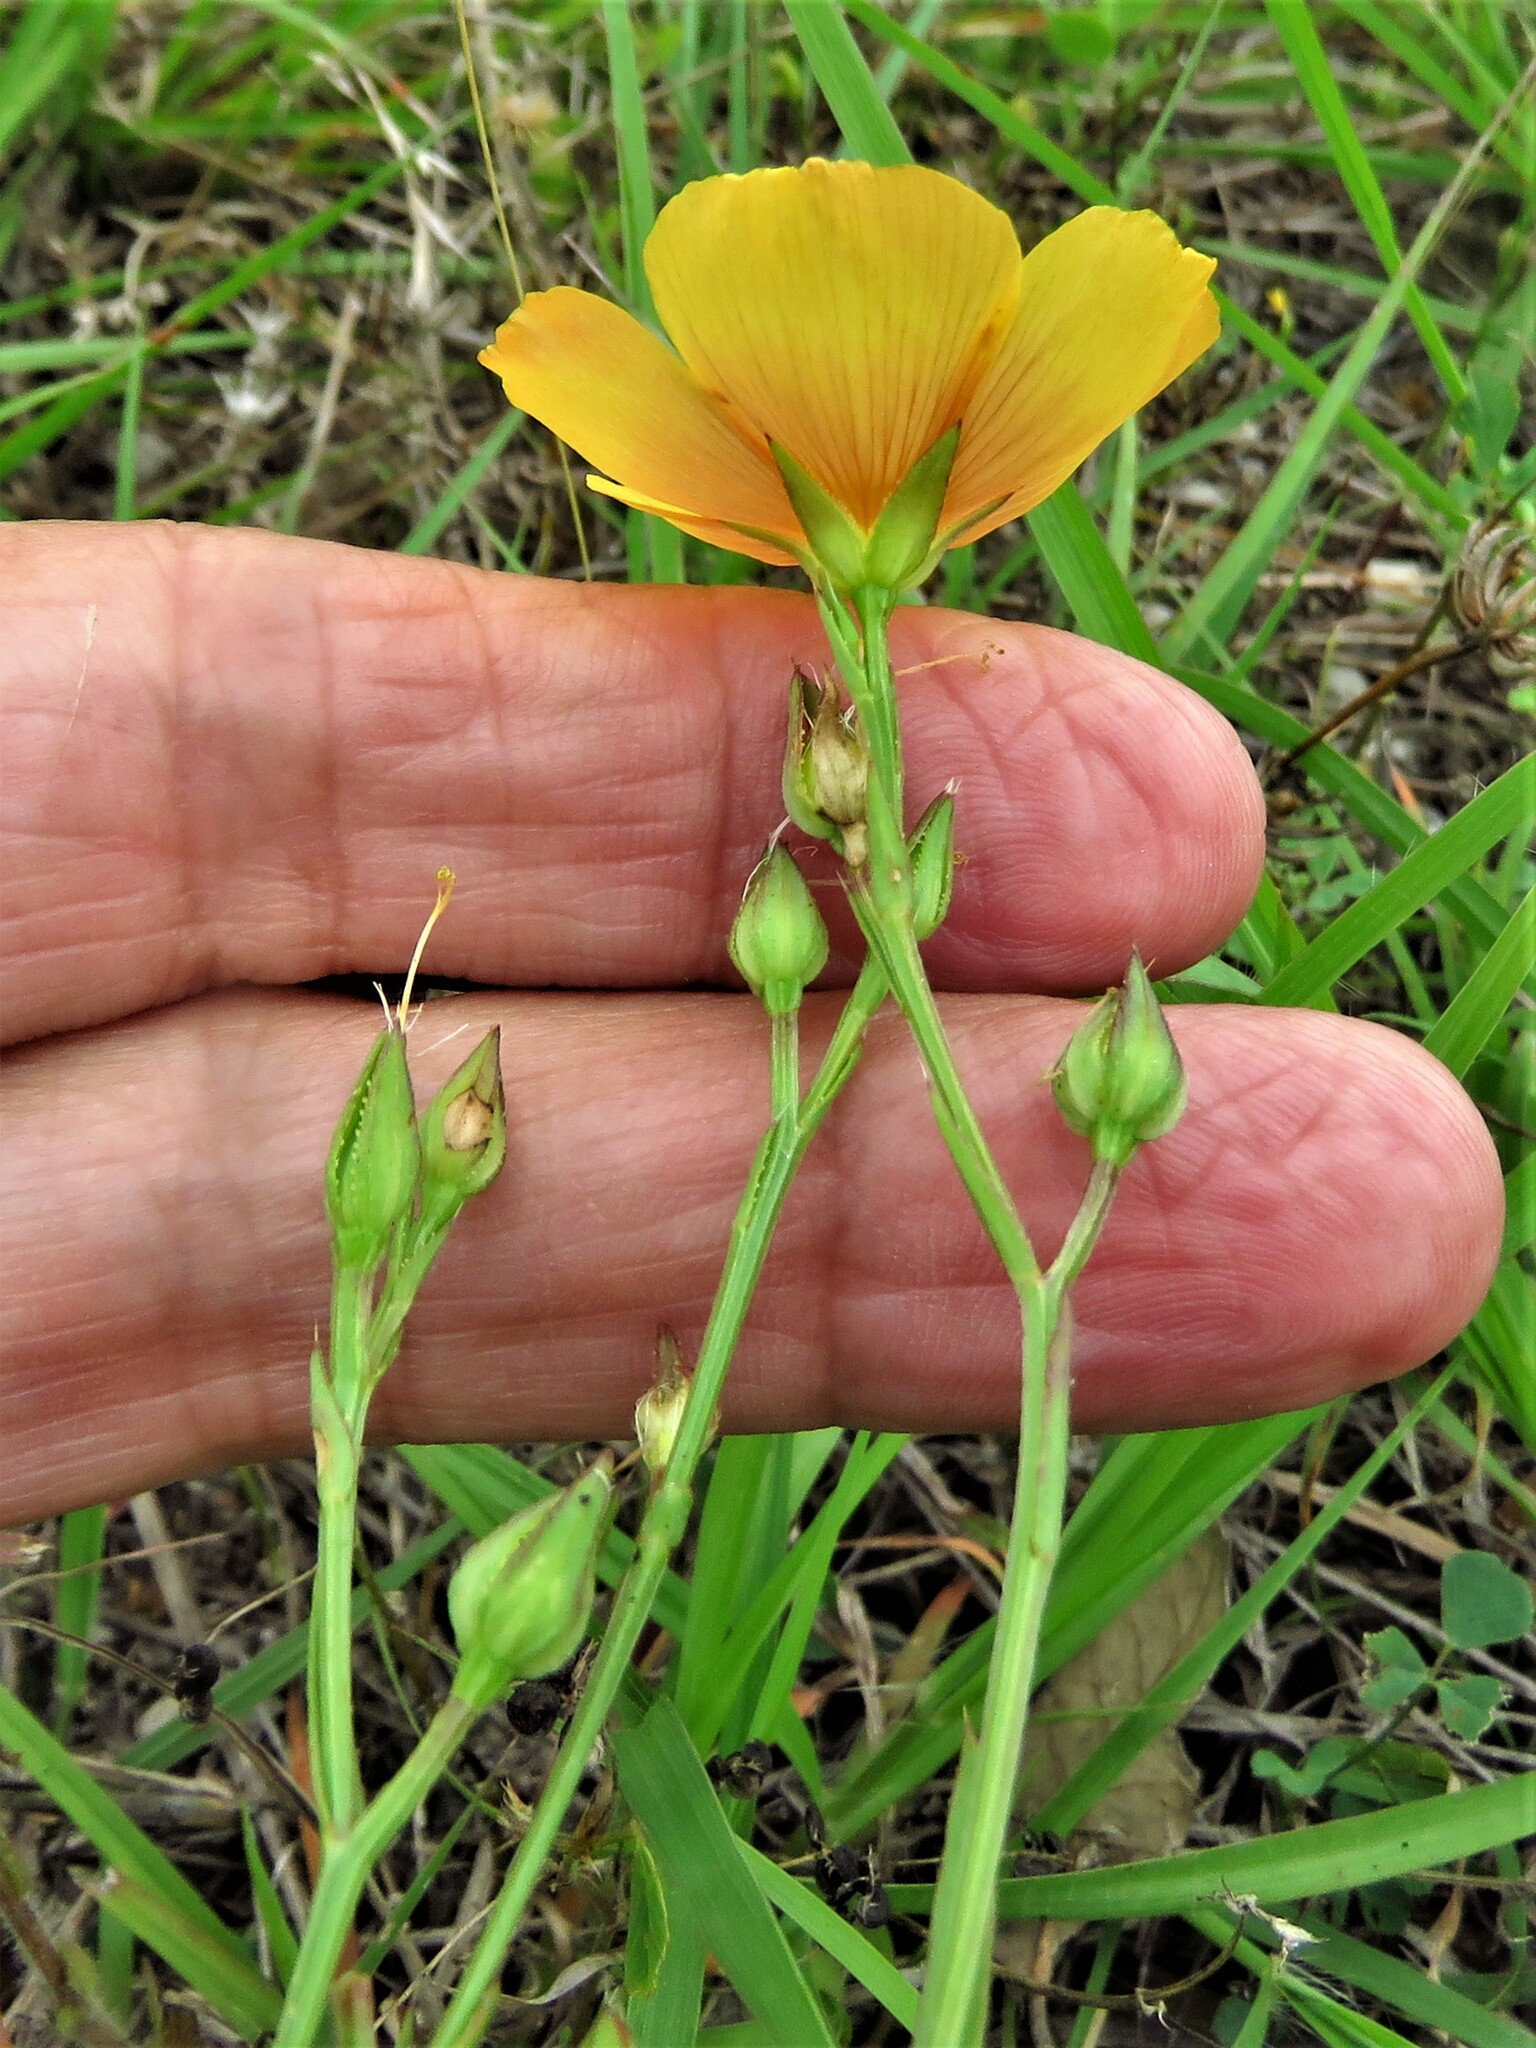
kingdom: Plantae
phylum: Tracheophyta
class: Magnoliopsida
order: Malpighiales
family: Linaceae
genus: Linum
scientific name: Linum berlandieri
